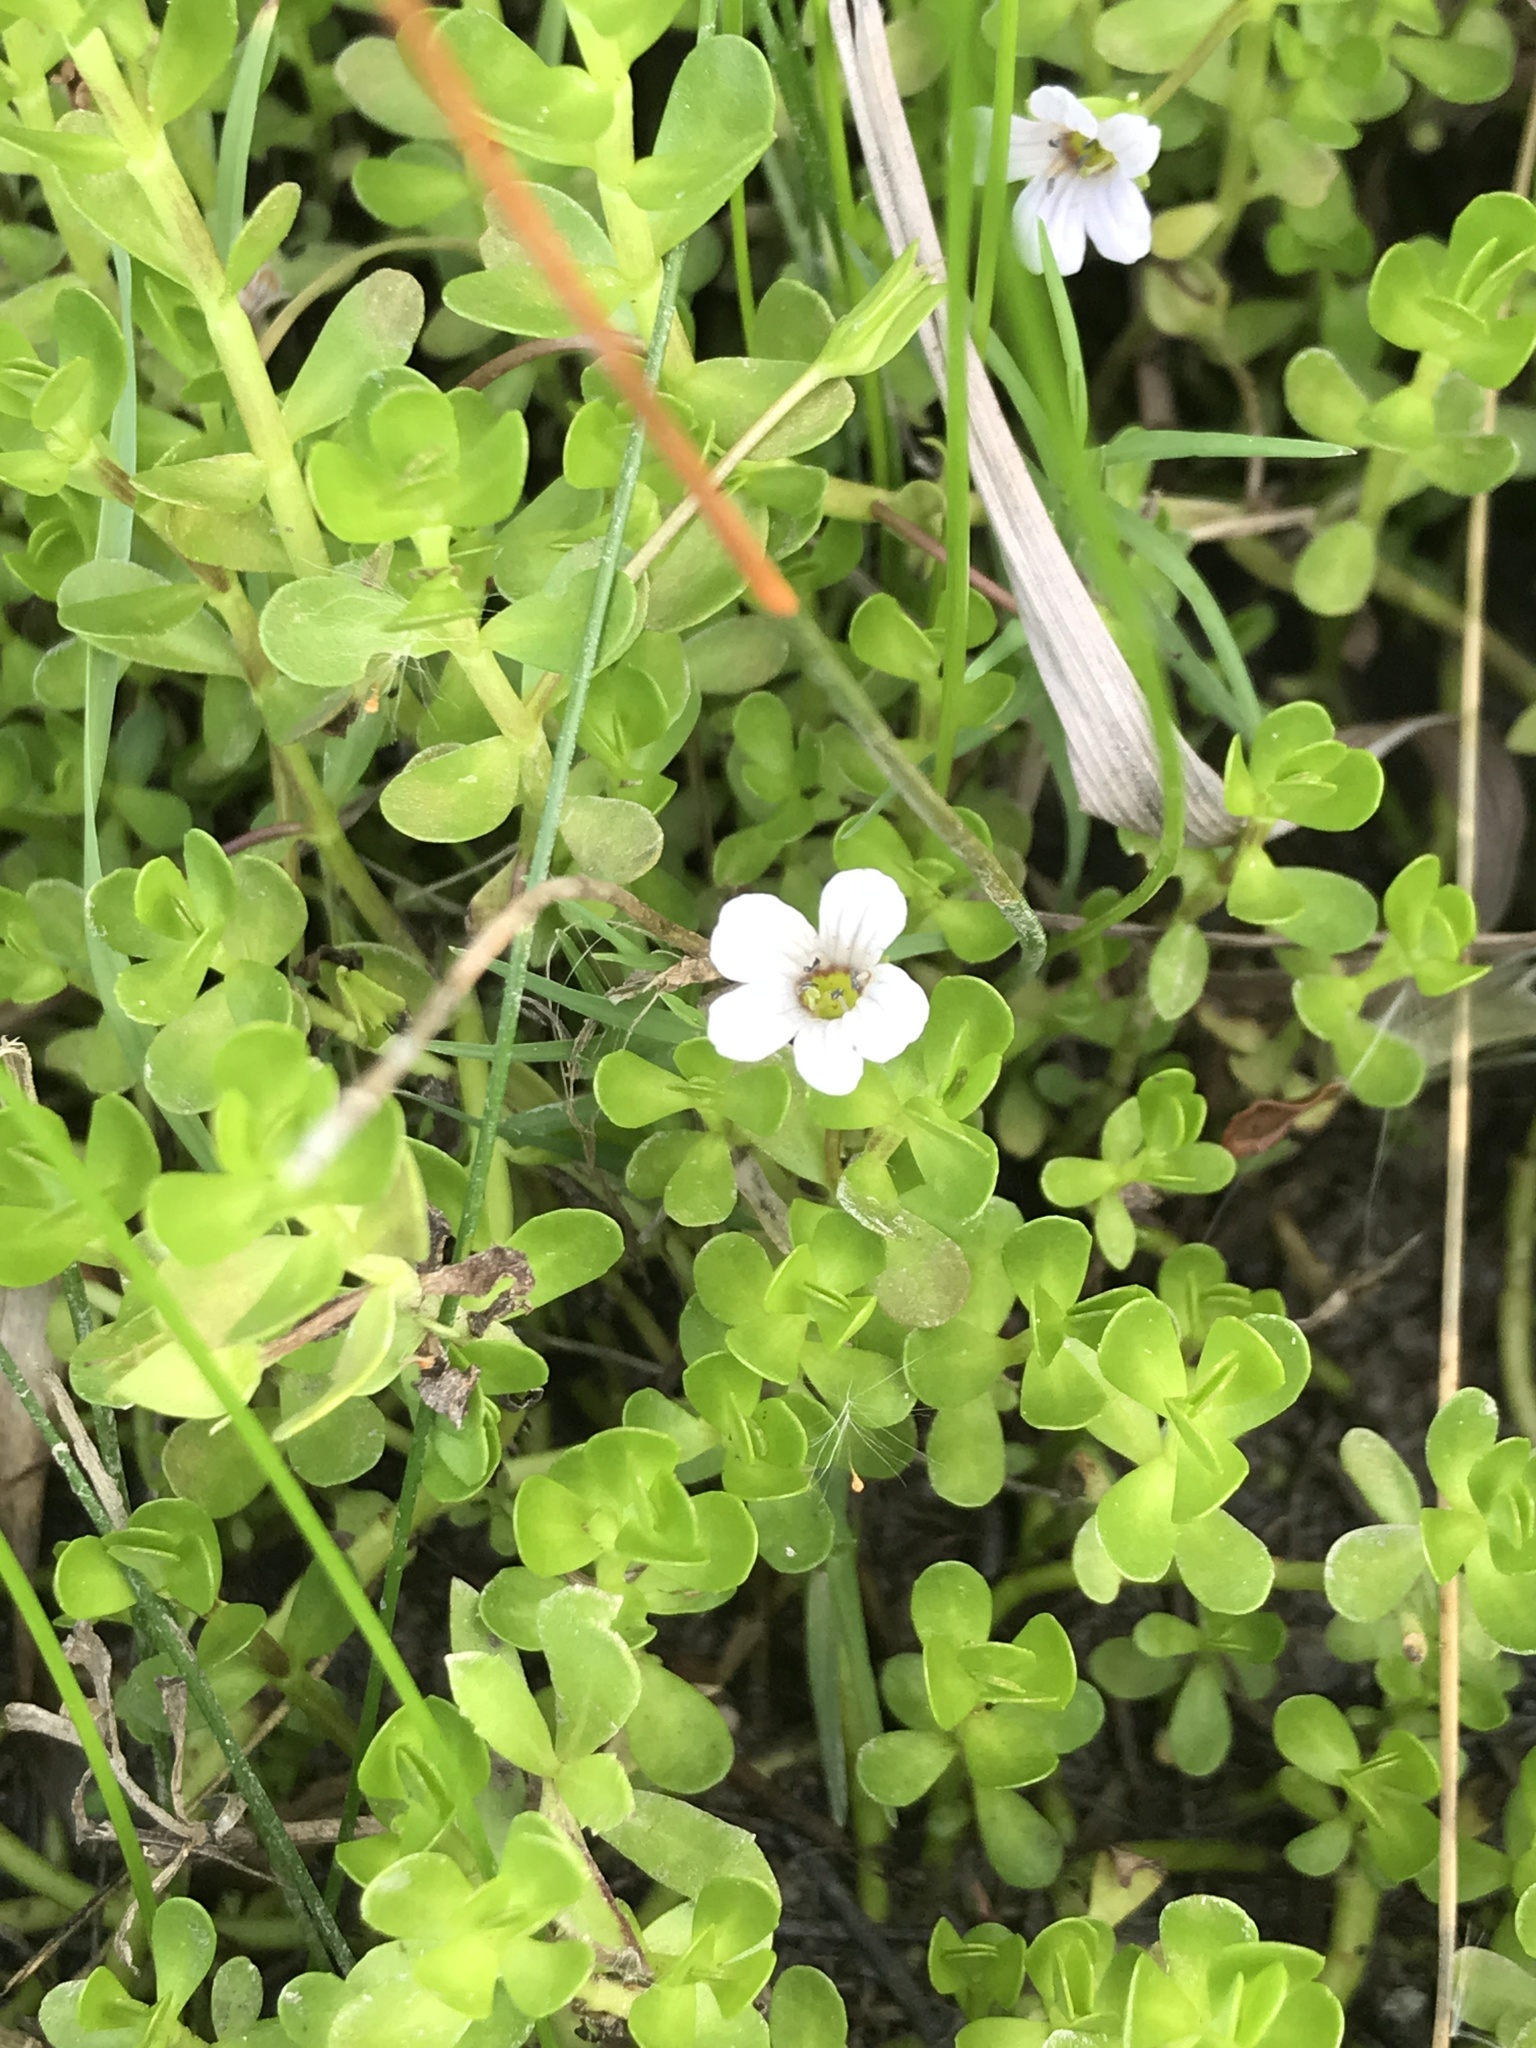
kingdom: Plantae
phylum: Tracheophyta
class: Magnoliopsida
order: Lamiales
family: Plantaginaceae
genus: Bacopa
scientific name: Bacopa monnieri
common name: Indian-pennywort
